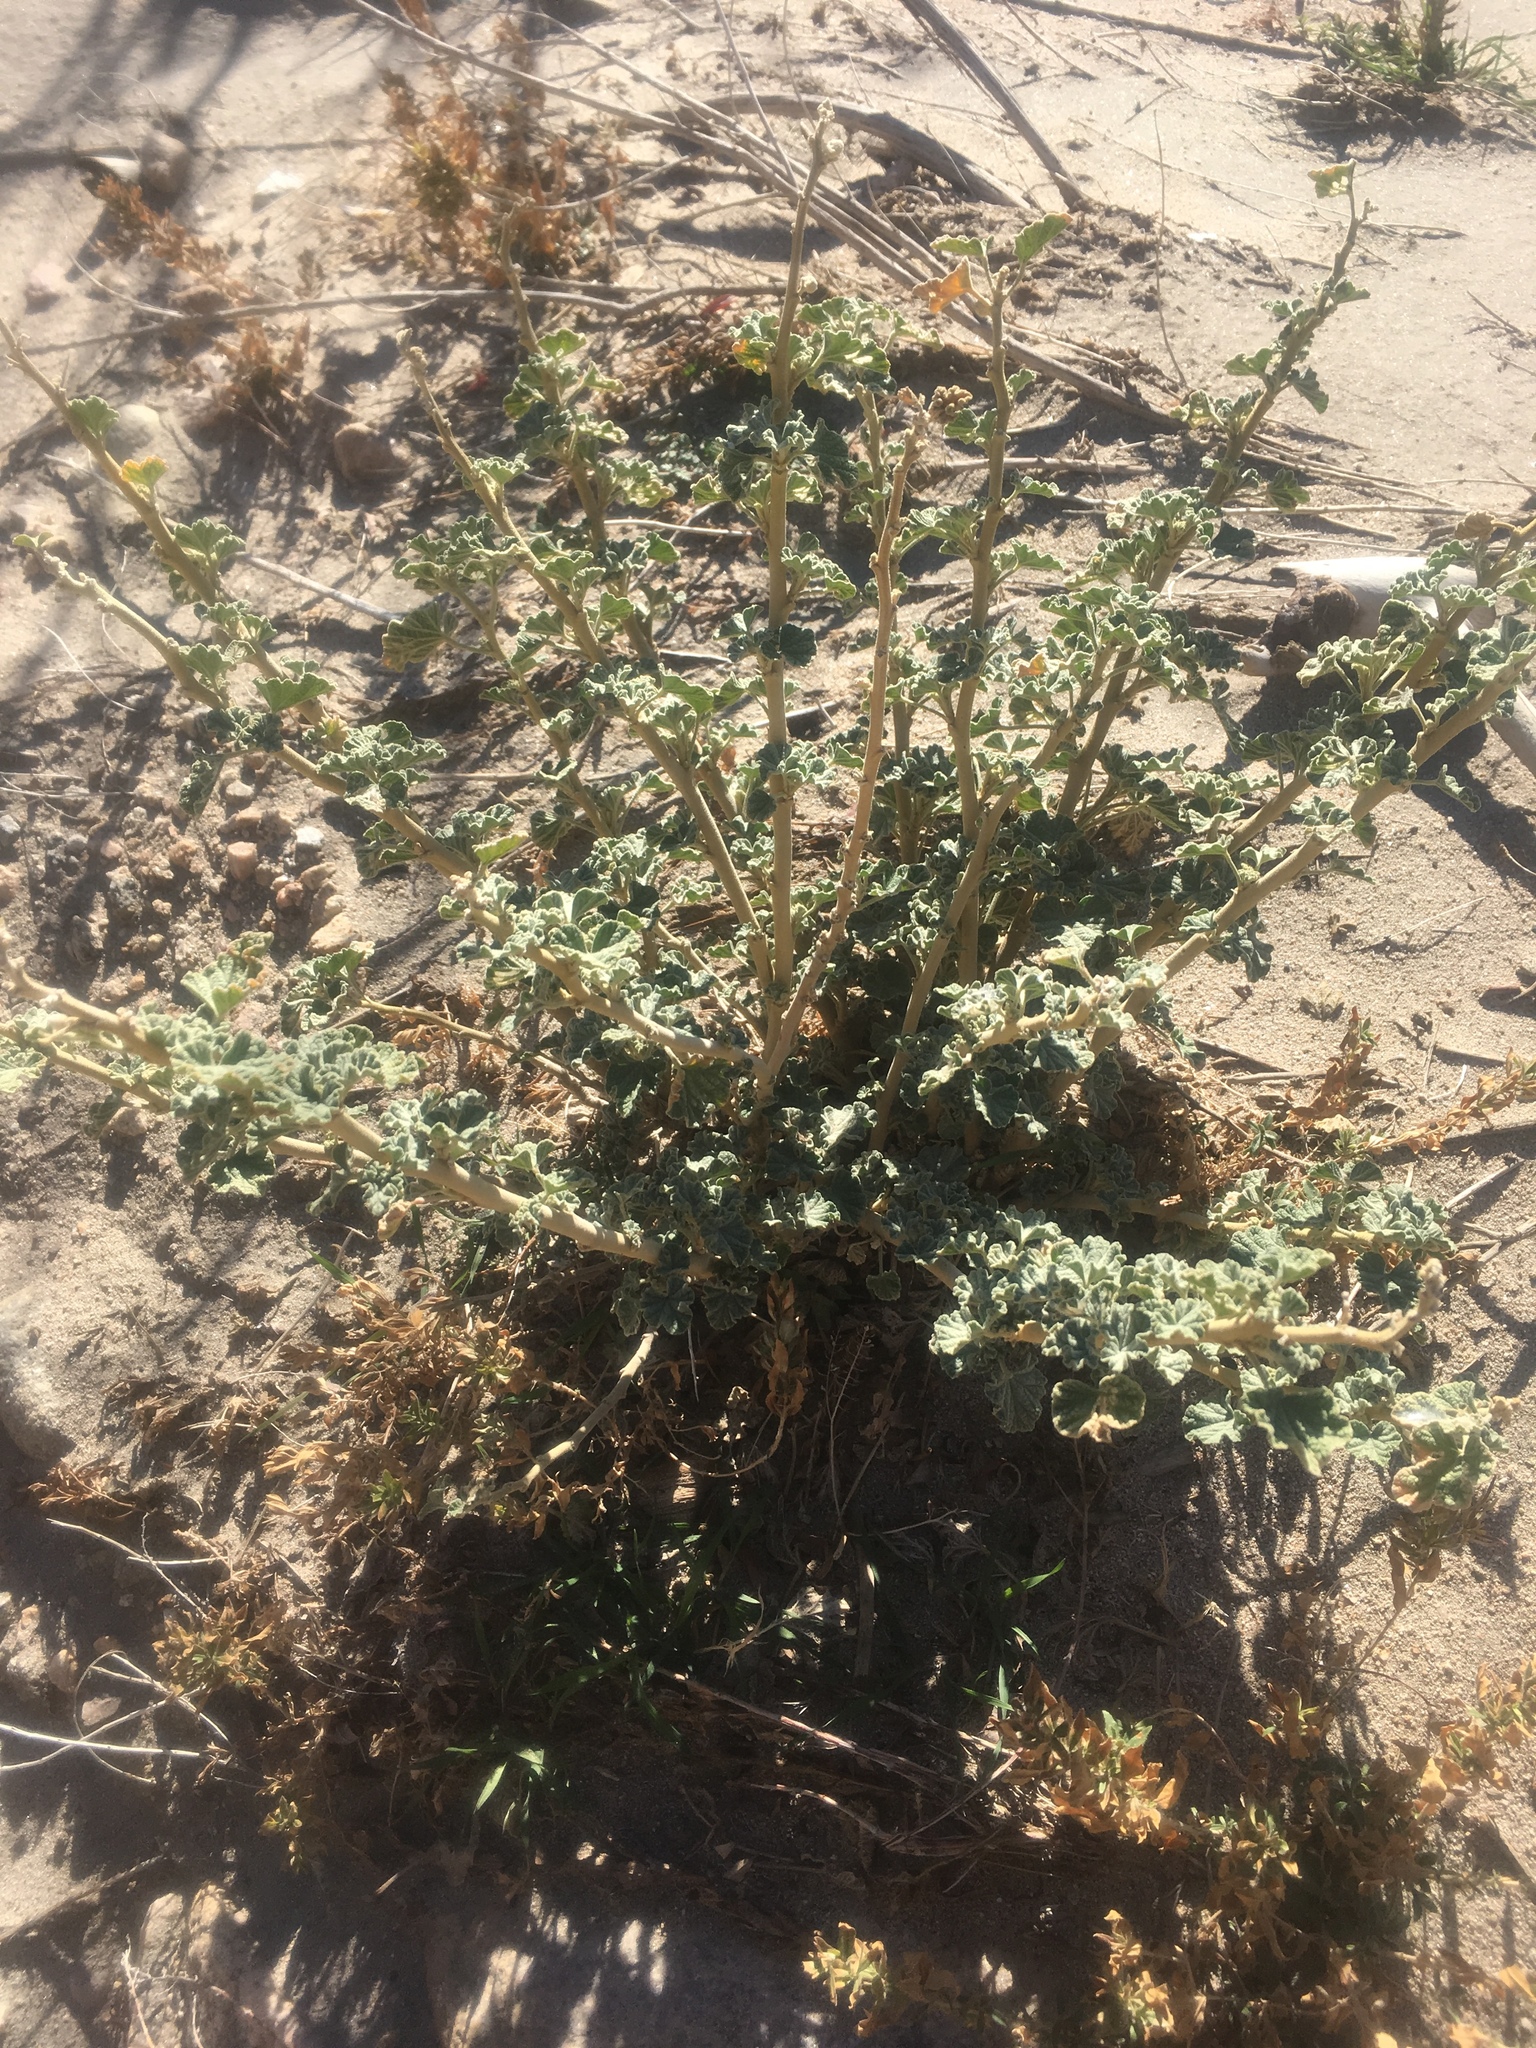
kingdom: Plantae
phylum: Tracheophyta
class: Magnoliopsida
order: Malvales
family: Malvaceae
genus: Sphaeralcea
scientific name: Sphaeralcea ambigua
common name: Apricot globe-mallow
